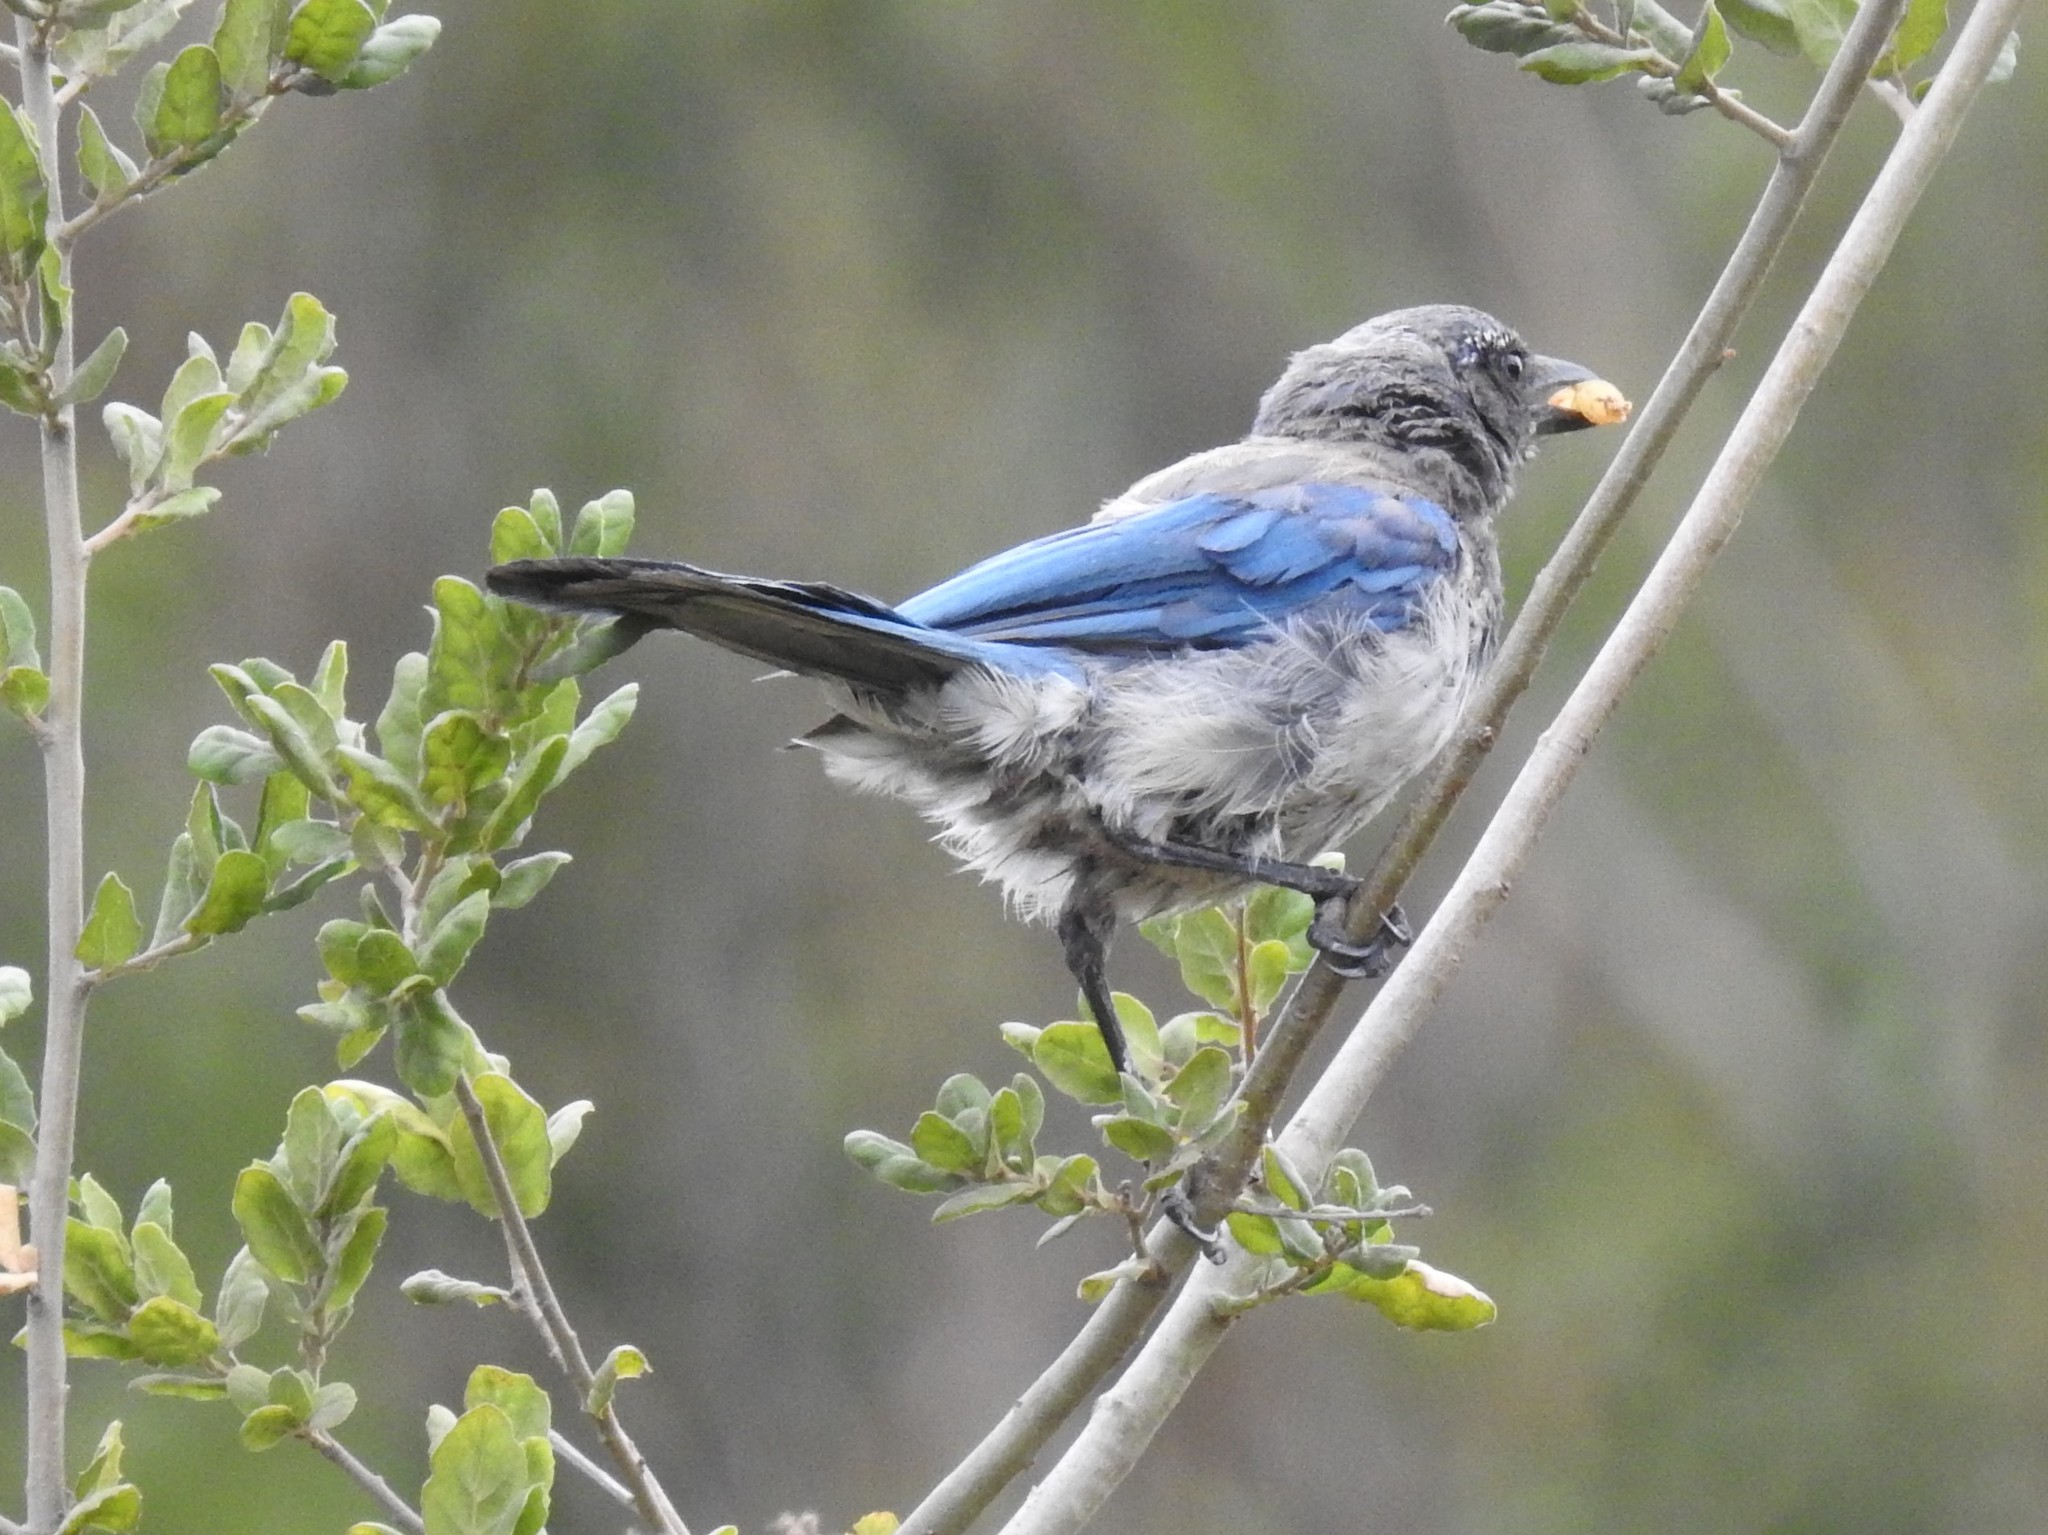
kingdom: Animalia
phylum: Chordata
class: Aves
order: Passeriformes
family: Corvidae
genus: Aphelocoma
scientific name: Aphelocoma californica
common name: California scrub-jay
